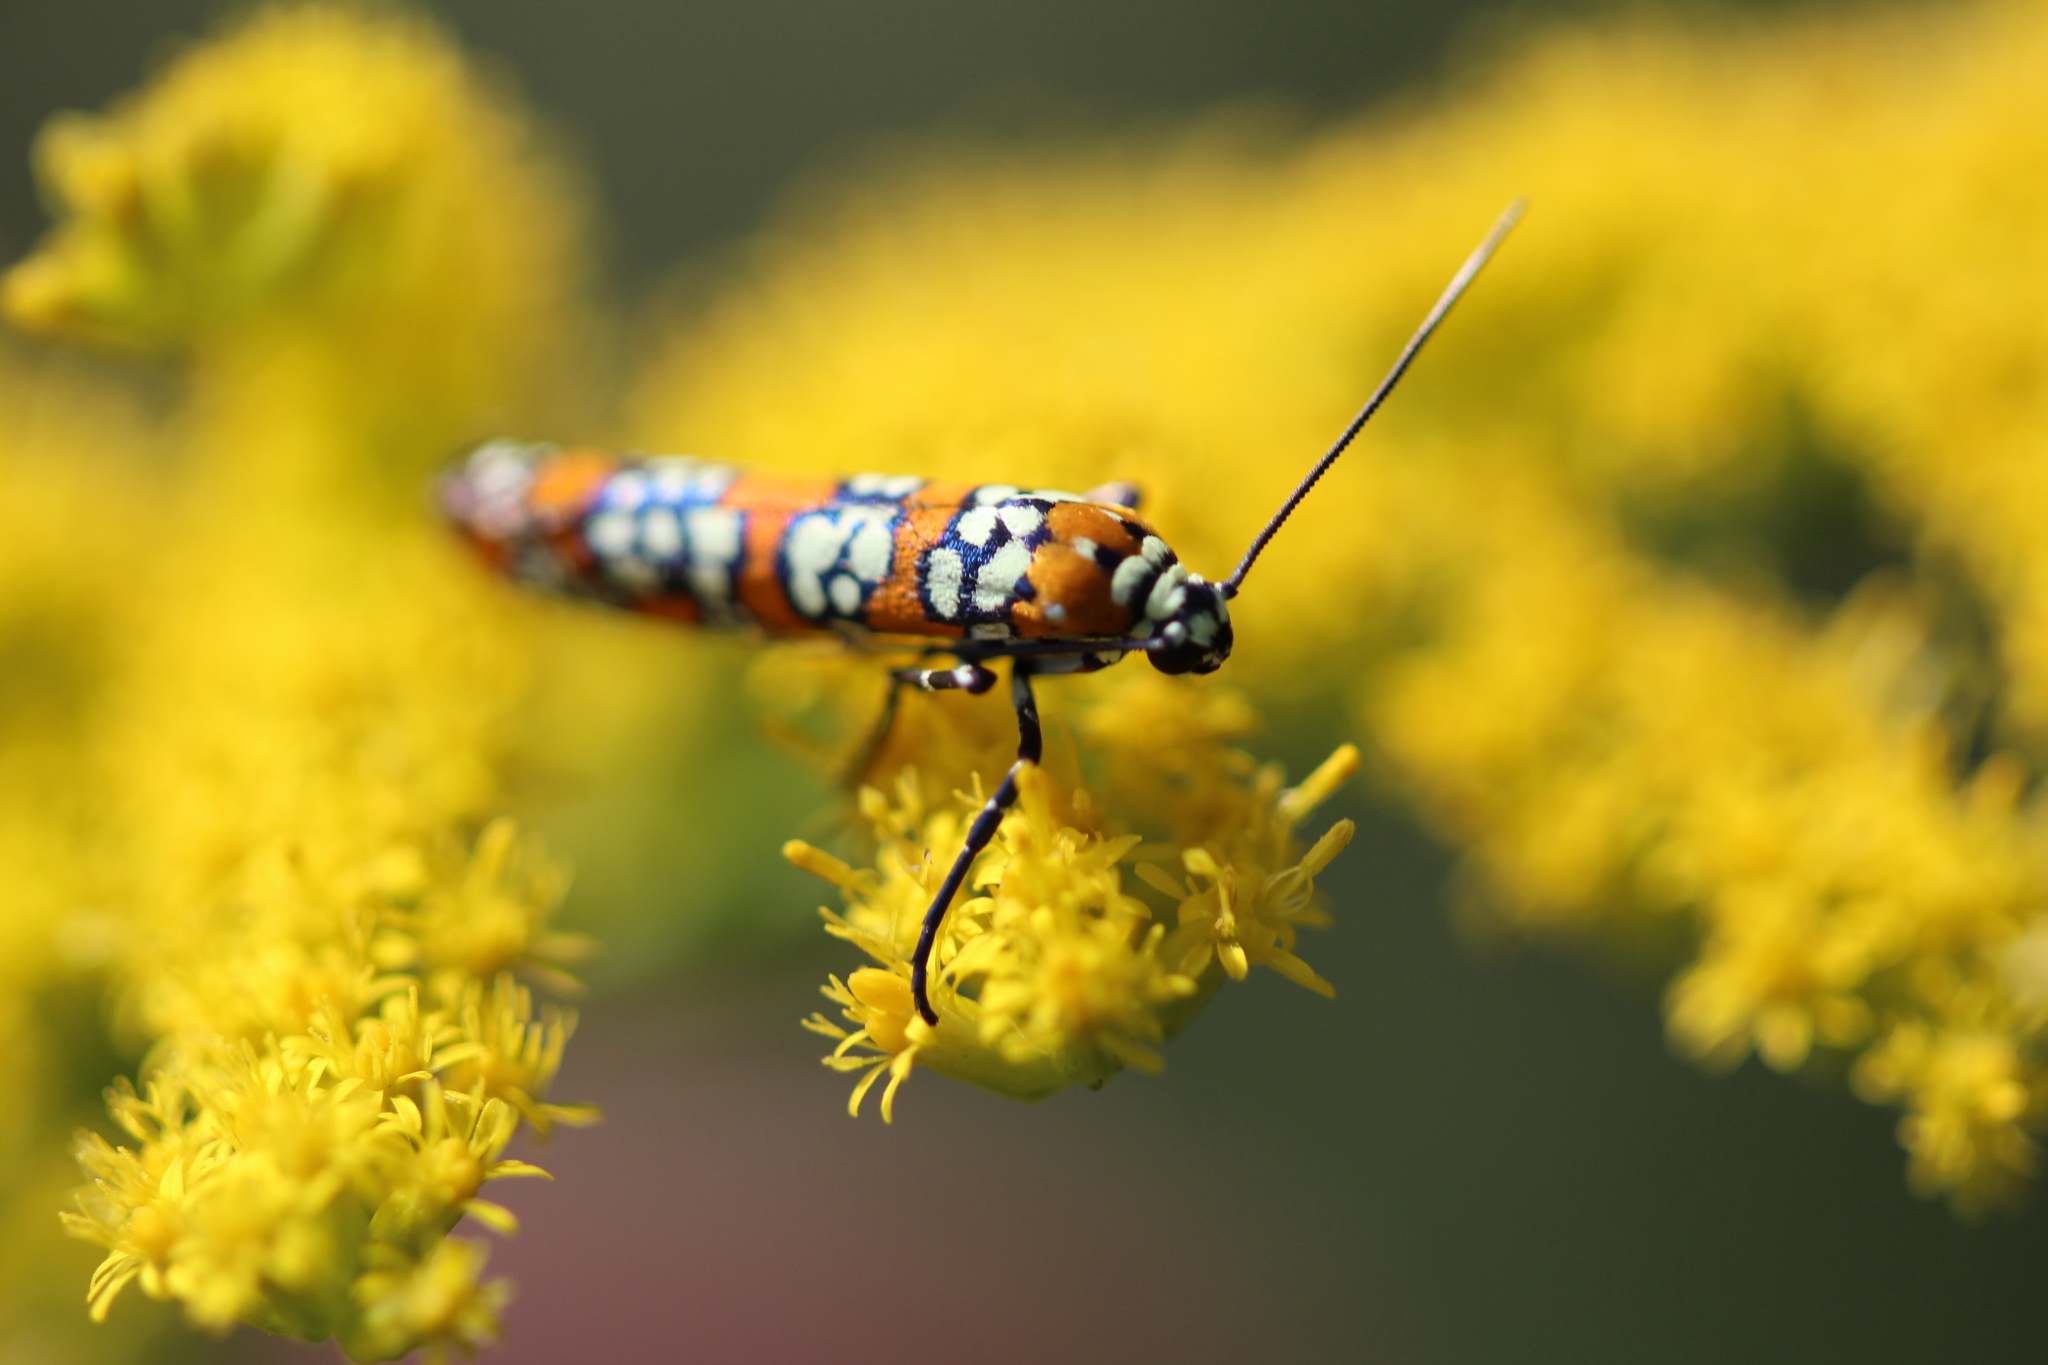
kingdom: Animalia
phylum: Arthropoda
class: Insecta
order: Lepidoptera
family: Attevidae
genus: Atteva
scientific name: Atteva punctella
